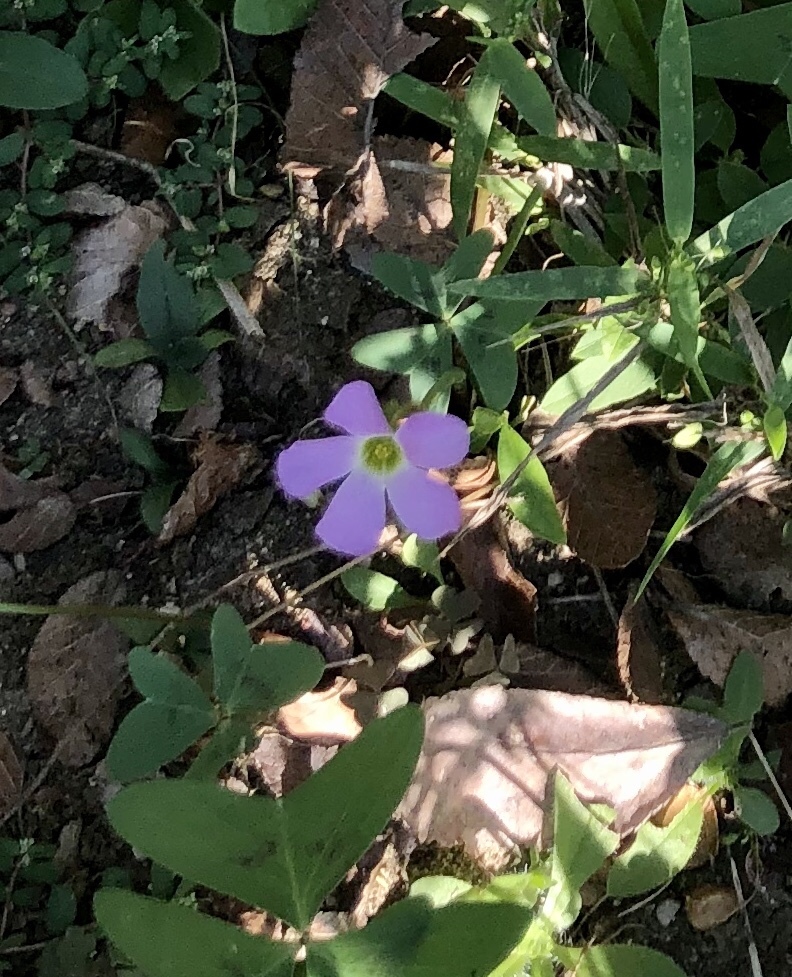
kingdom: Plantae
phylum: Tracheophyta
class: Magnoliopsida
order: Oxalidales
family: Oxalidaceae
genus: Oxalis
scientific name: Oxalis drummondii
